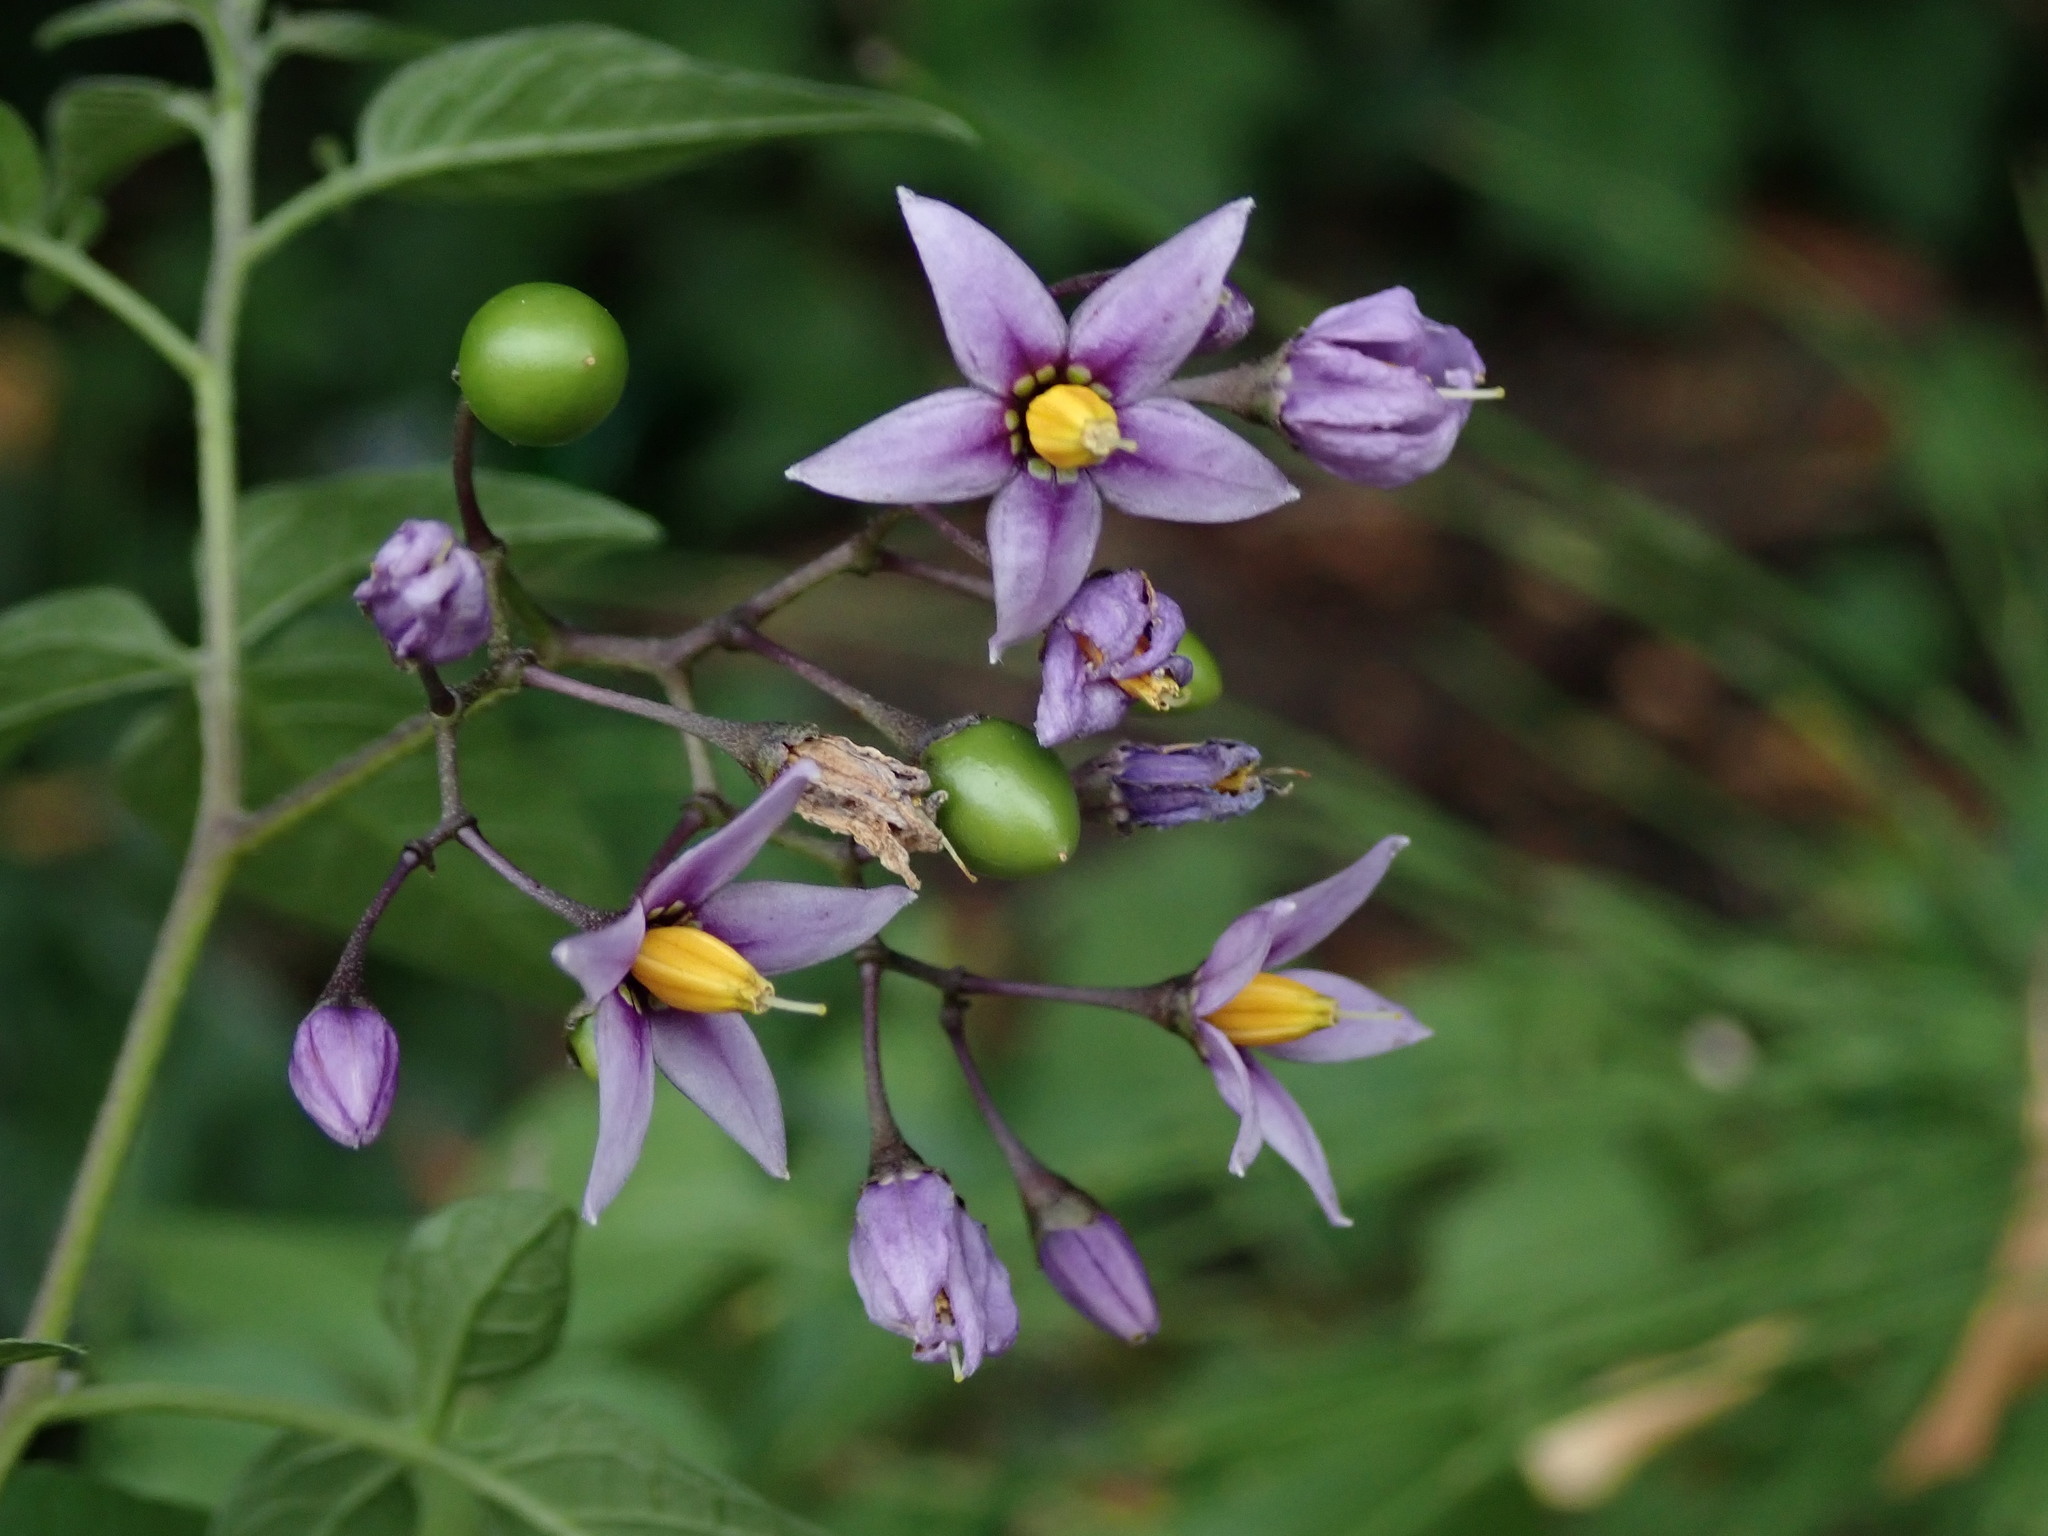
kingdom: Plantae
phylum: Tracheophyta
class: Magnoliopsida
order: Solanales
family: Solanaceae
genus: Solanum
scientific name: Solanum dulcamara
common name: Climbing nightshade
